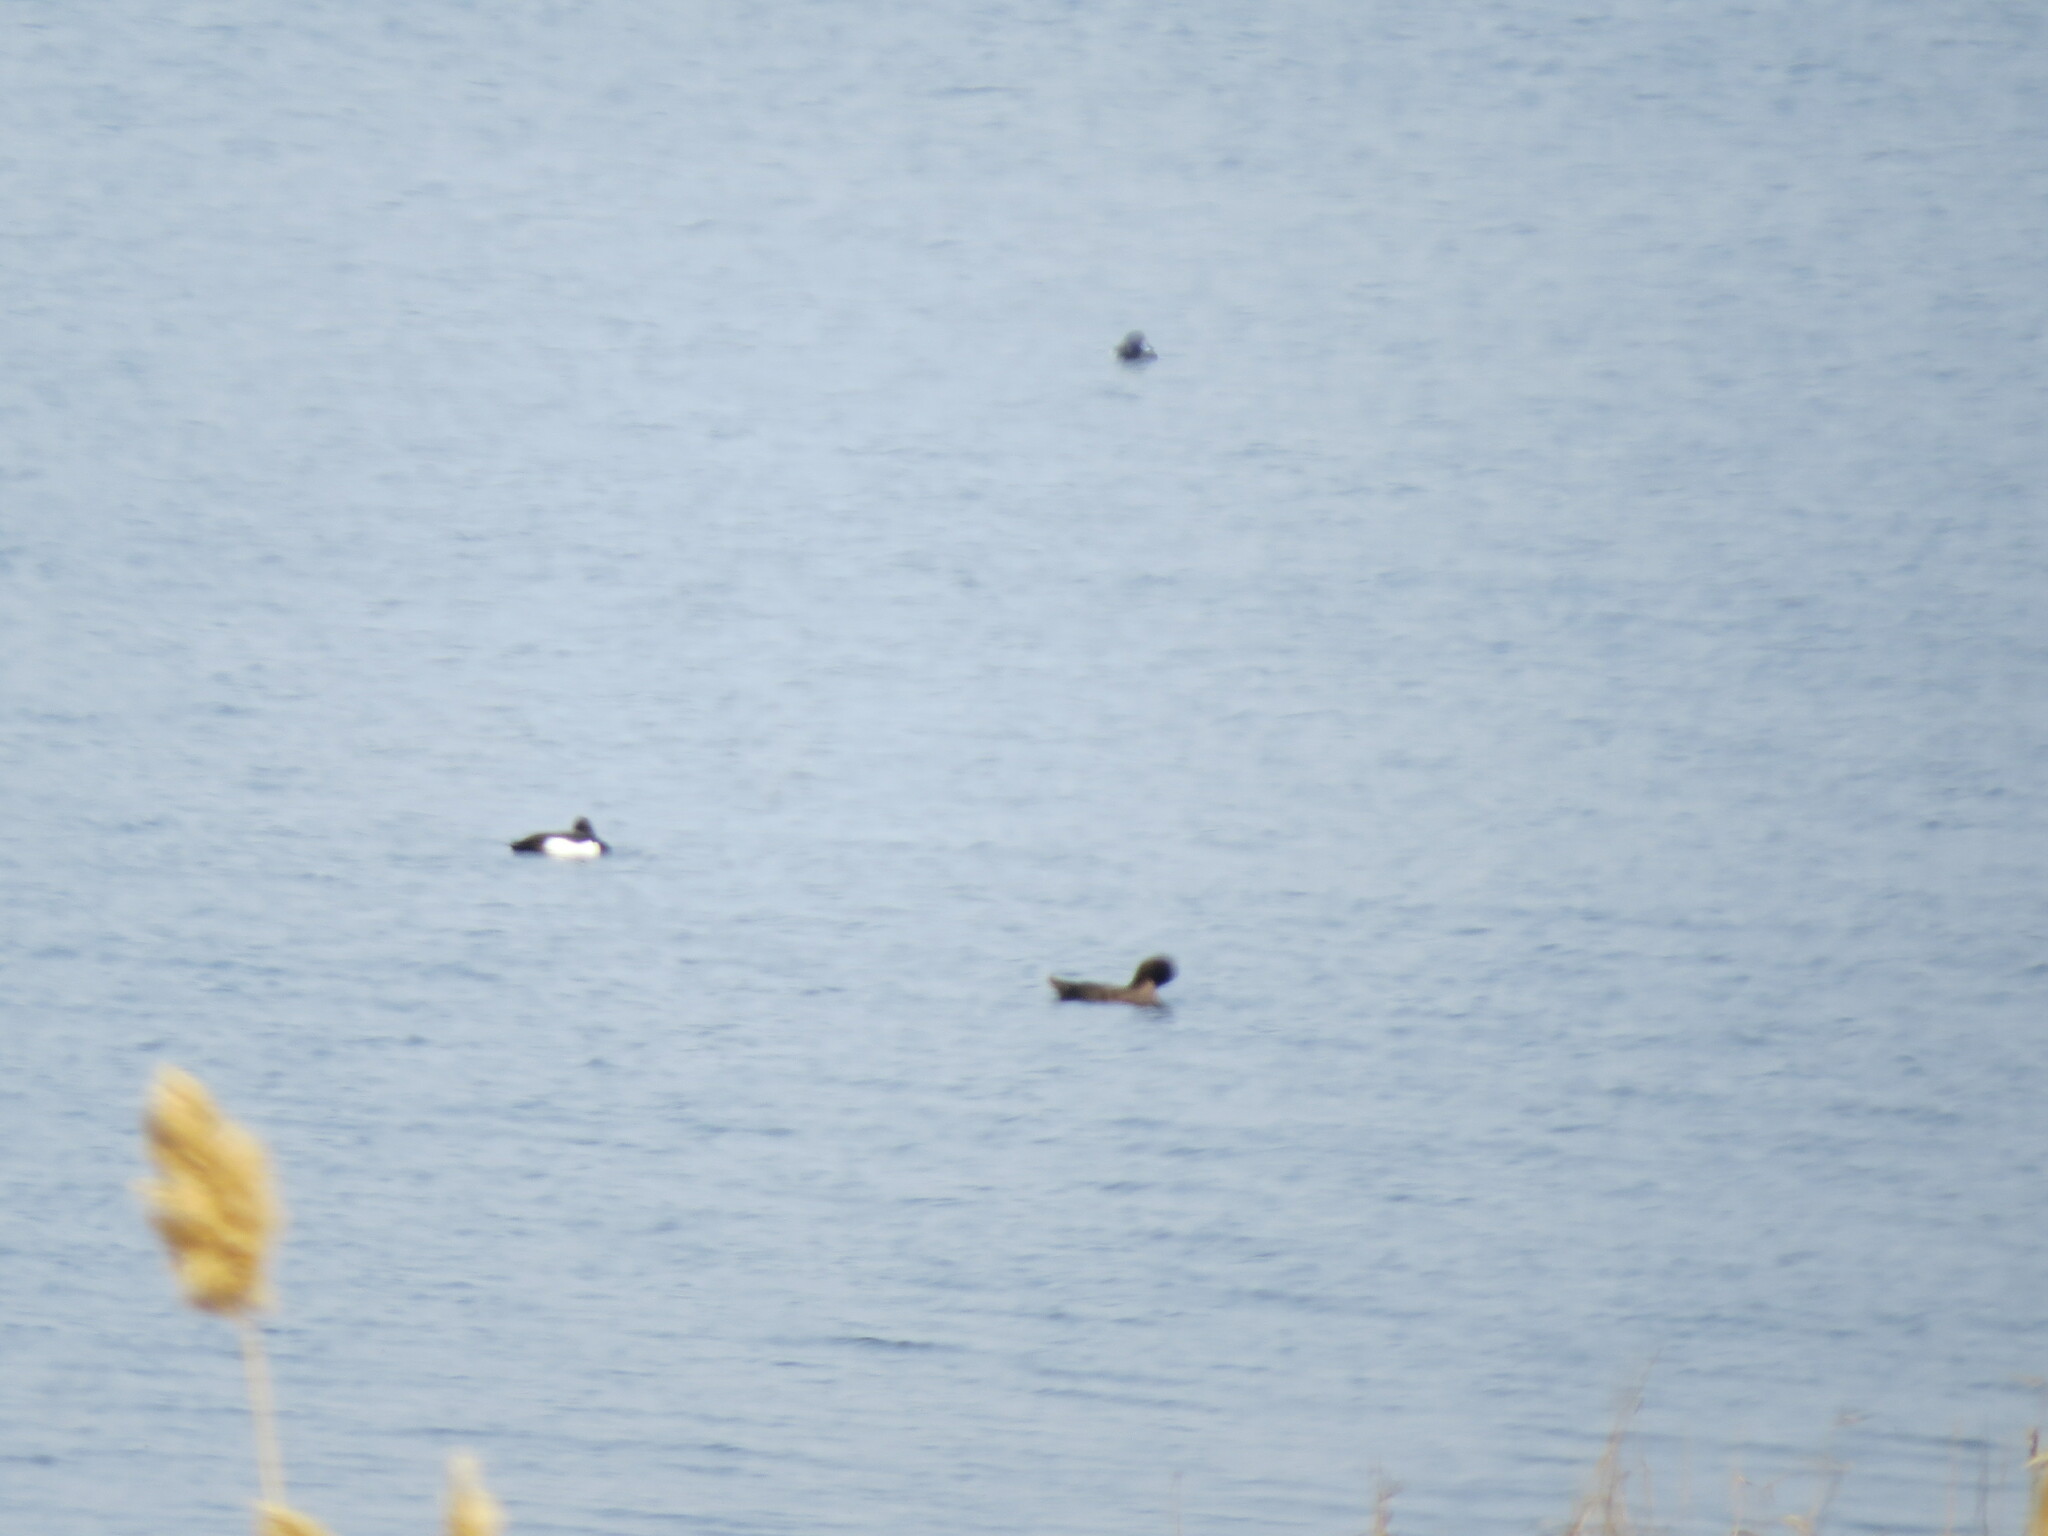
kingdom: Animalia
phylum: Chordata
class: Aves
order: Anseriformes
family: Anatidae
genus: Aythya
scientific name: Aythya fuligula
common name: Tufted duck
